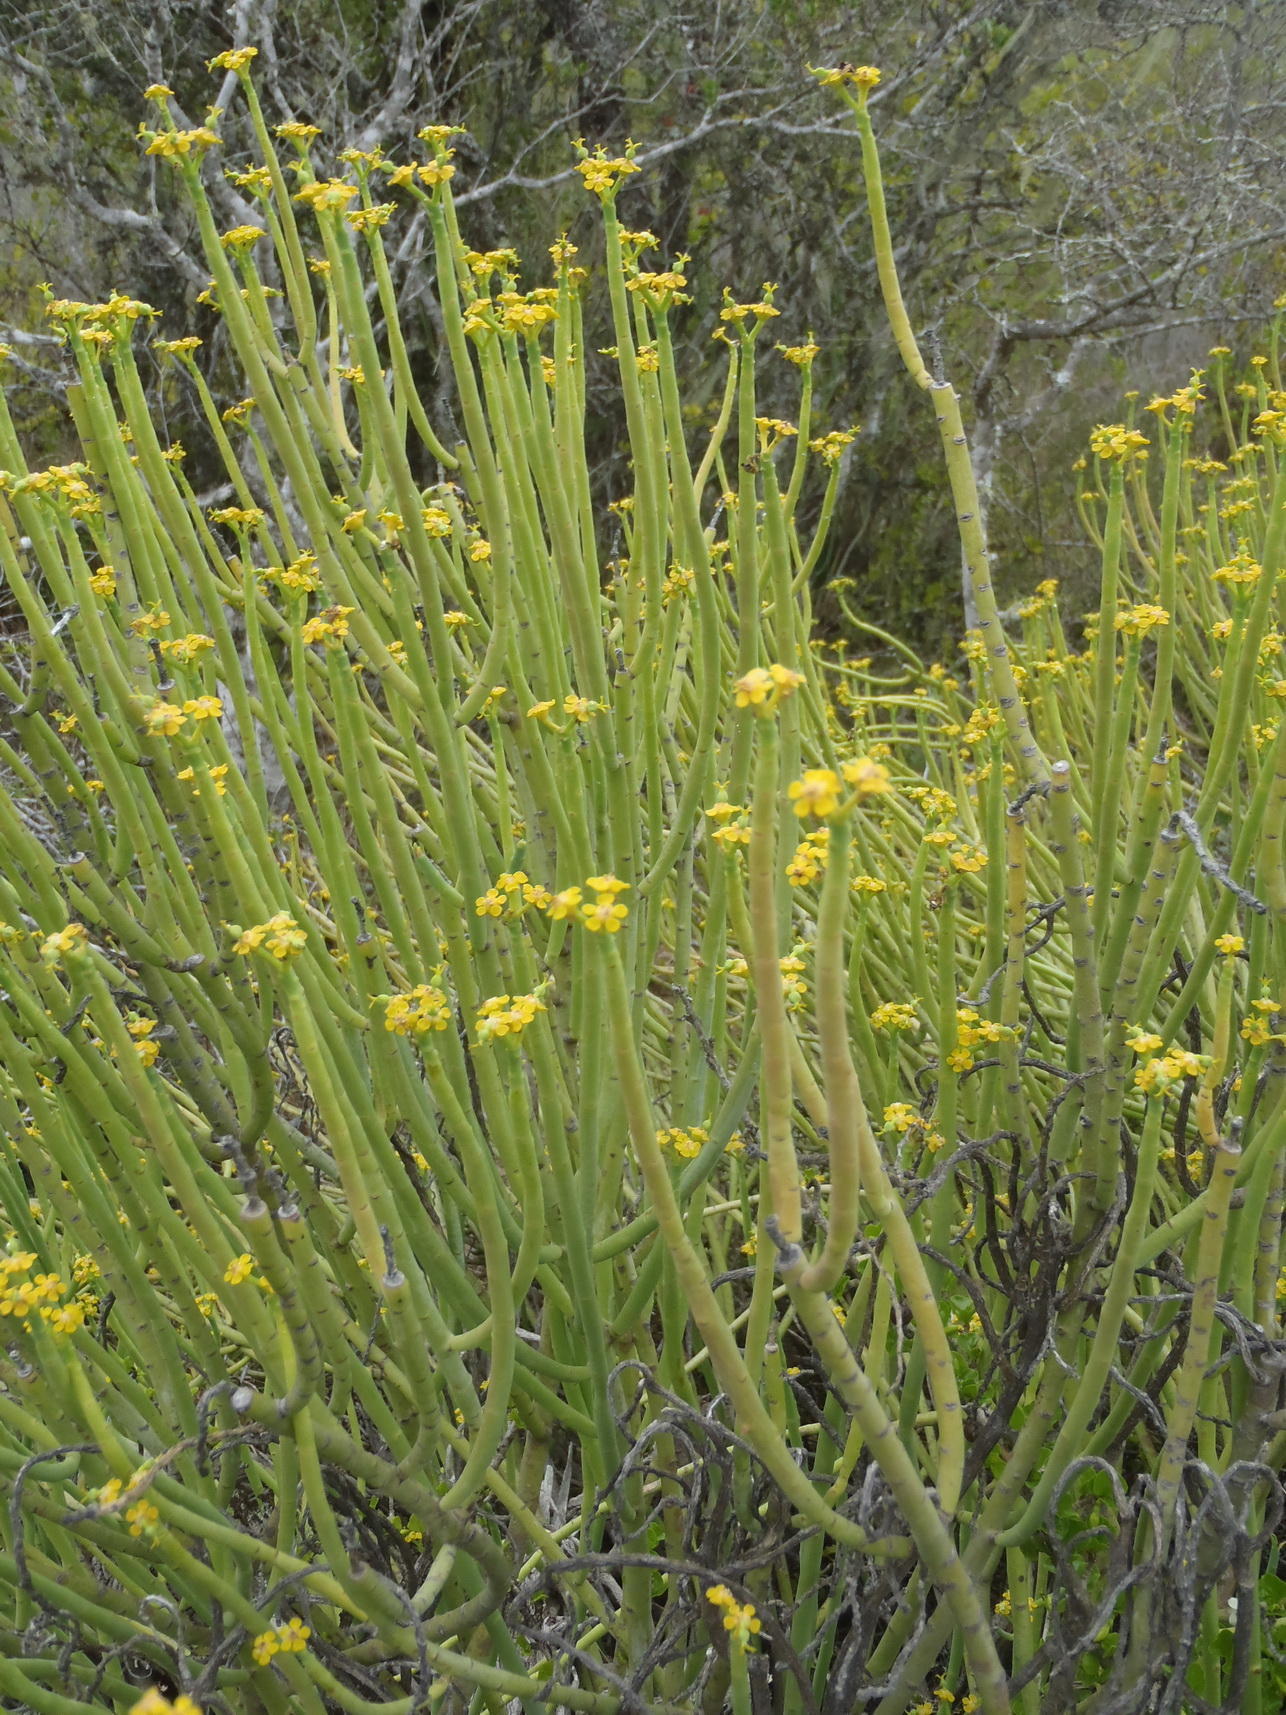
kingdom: Plantae
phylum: Tracheophyta
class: Magnoliopsida
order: Malpighiales
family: Euphorbiaceae
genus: Euphorbia
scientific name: Euphorbia mauritanica
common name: Jackal's-food
